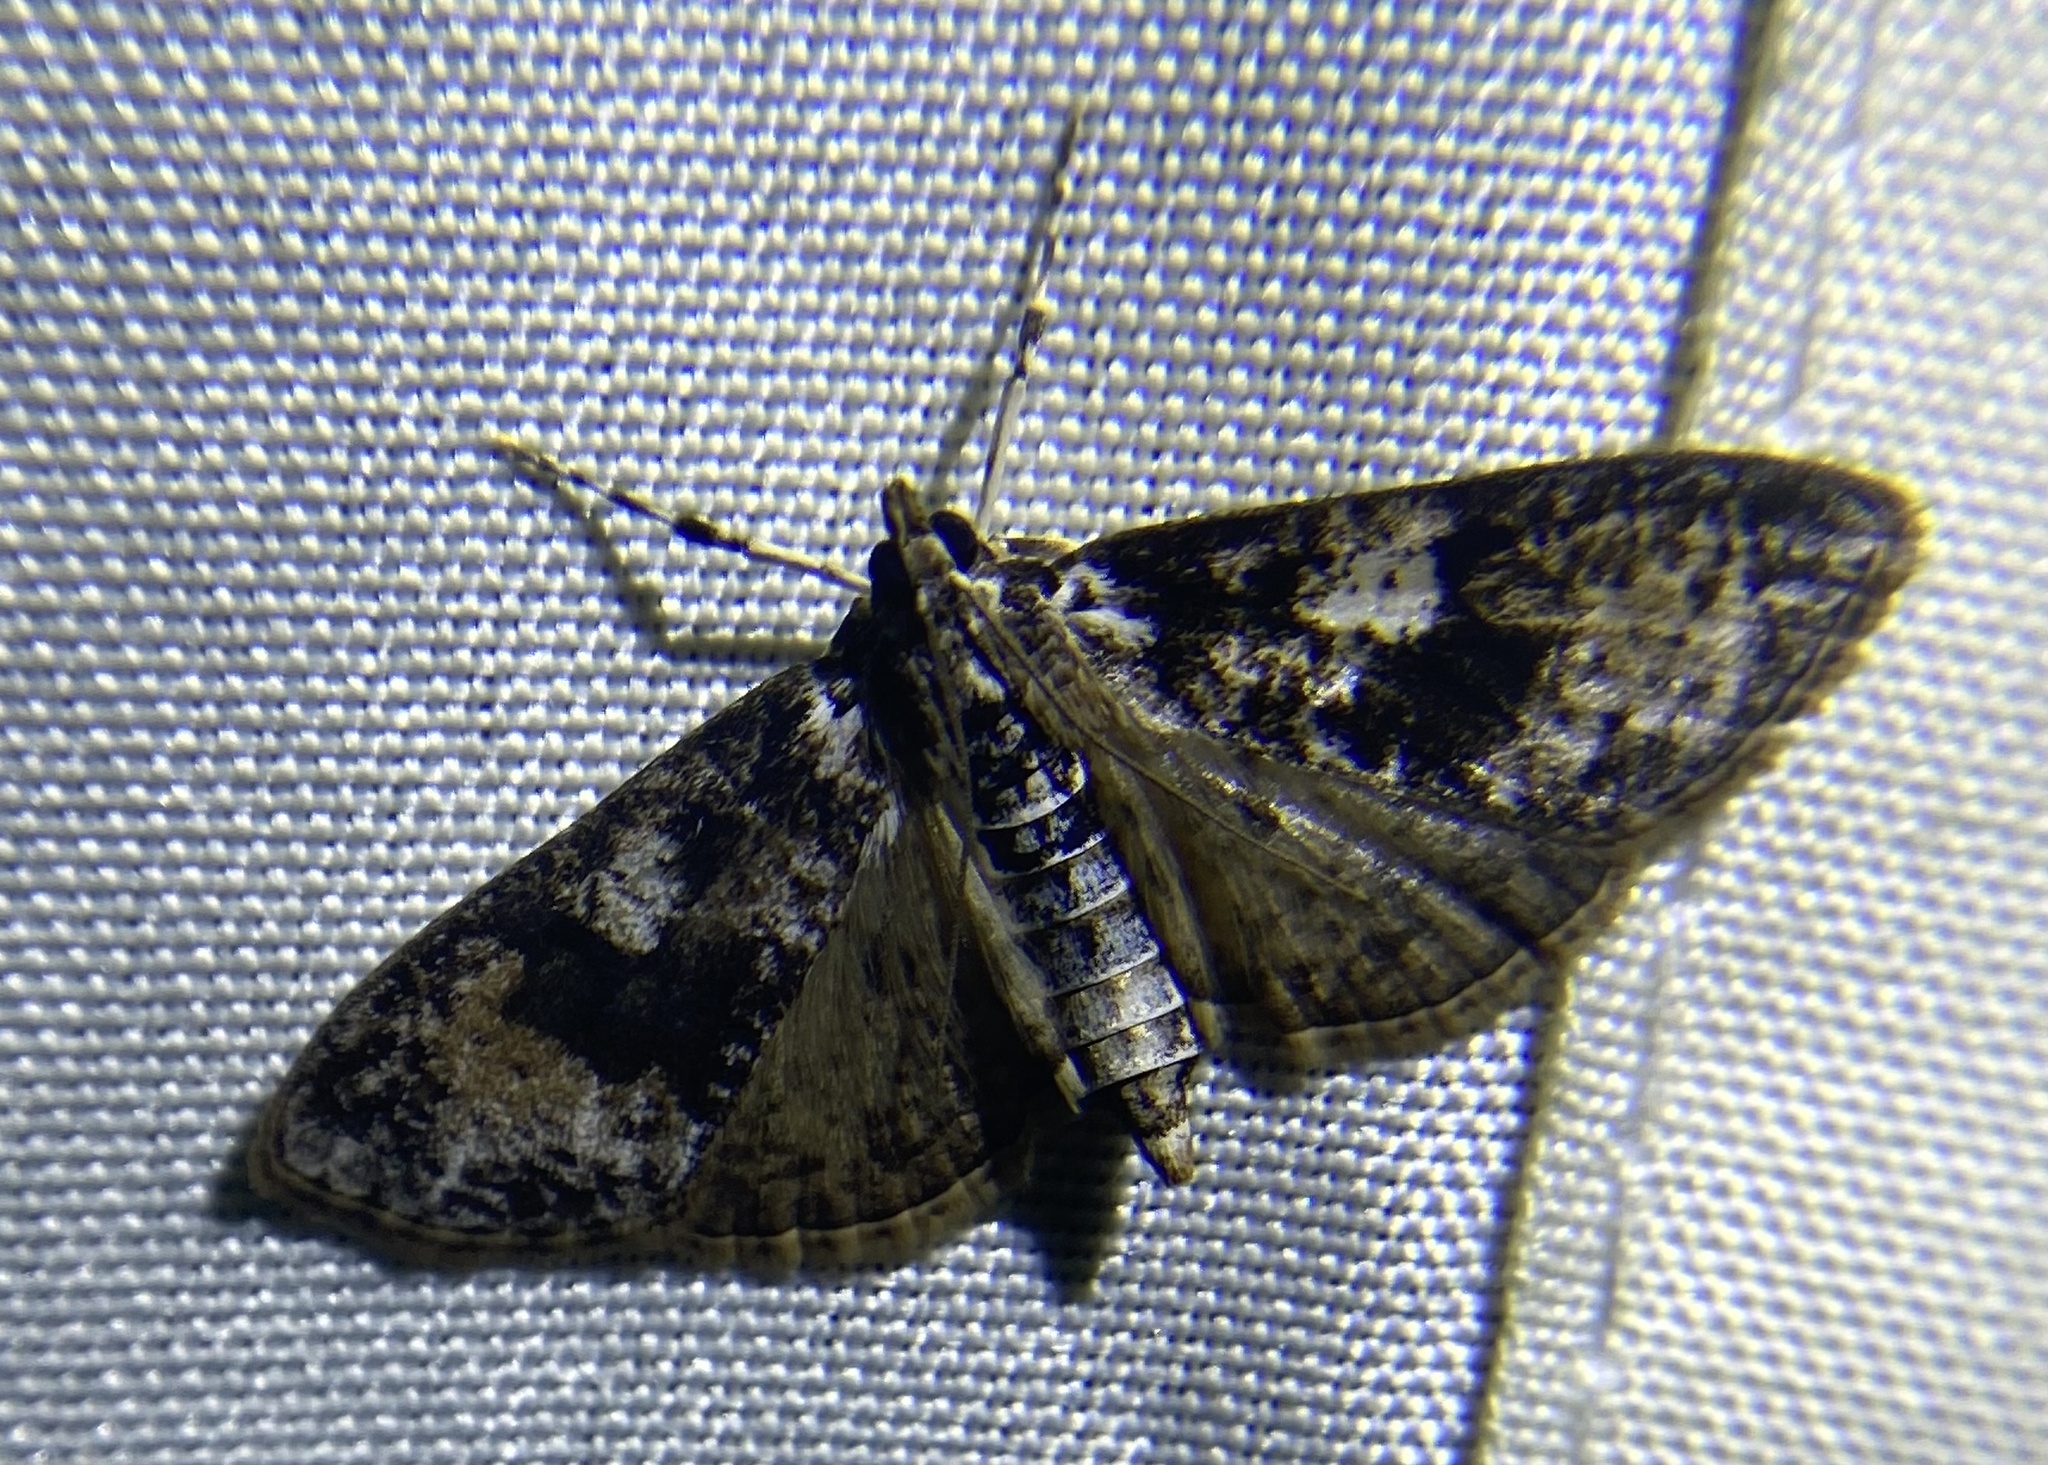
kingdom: Animalia
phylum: Arthropoda
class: Insecta
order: Lepidoptera
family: Crambidae
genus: Palpita
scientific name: Palpita magniferalis
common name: Splendid palpita moth
